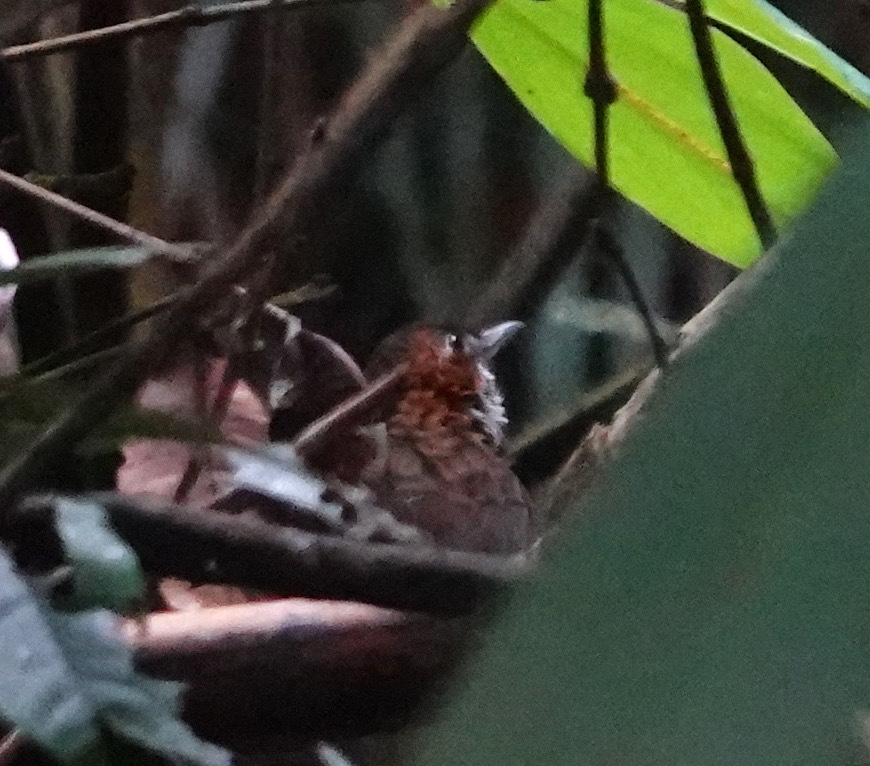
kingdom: Animalia
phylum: Chordata
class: Aves
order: Passeriformes
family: Pellorneidae
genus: Napothera
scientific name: Napothera marmorata
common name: Marbled wren-babbler
